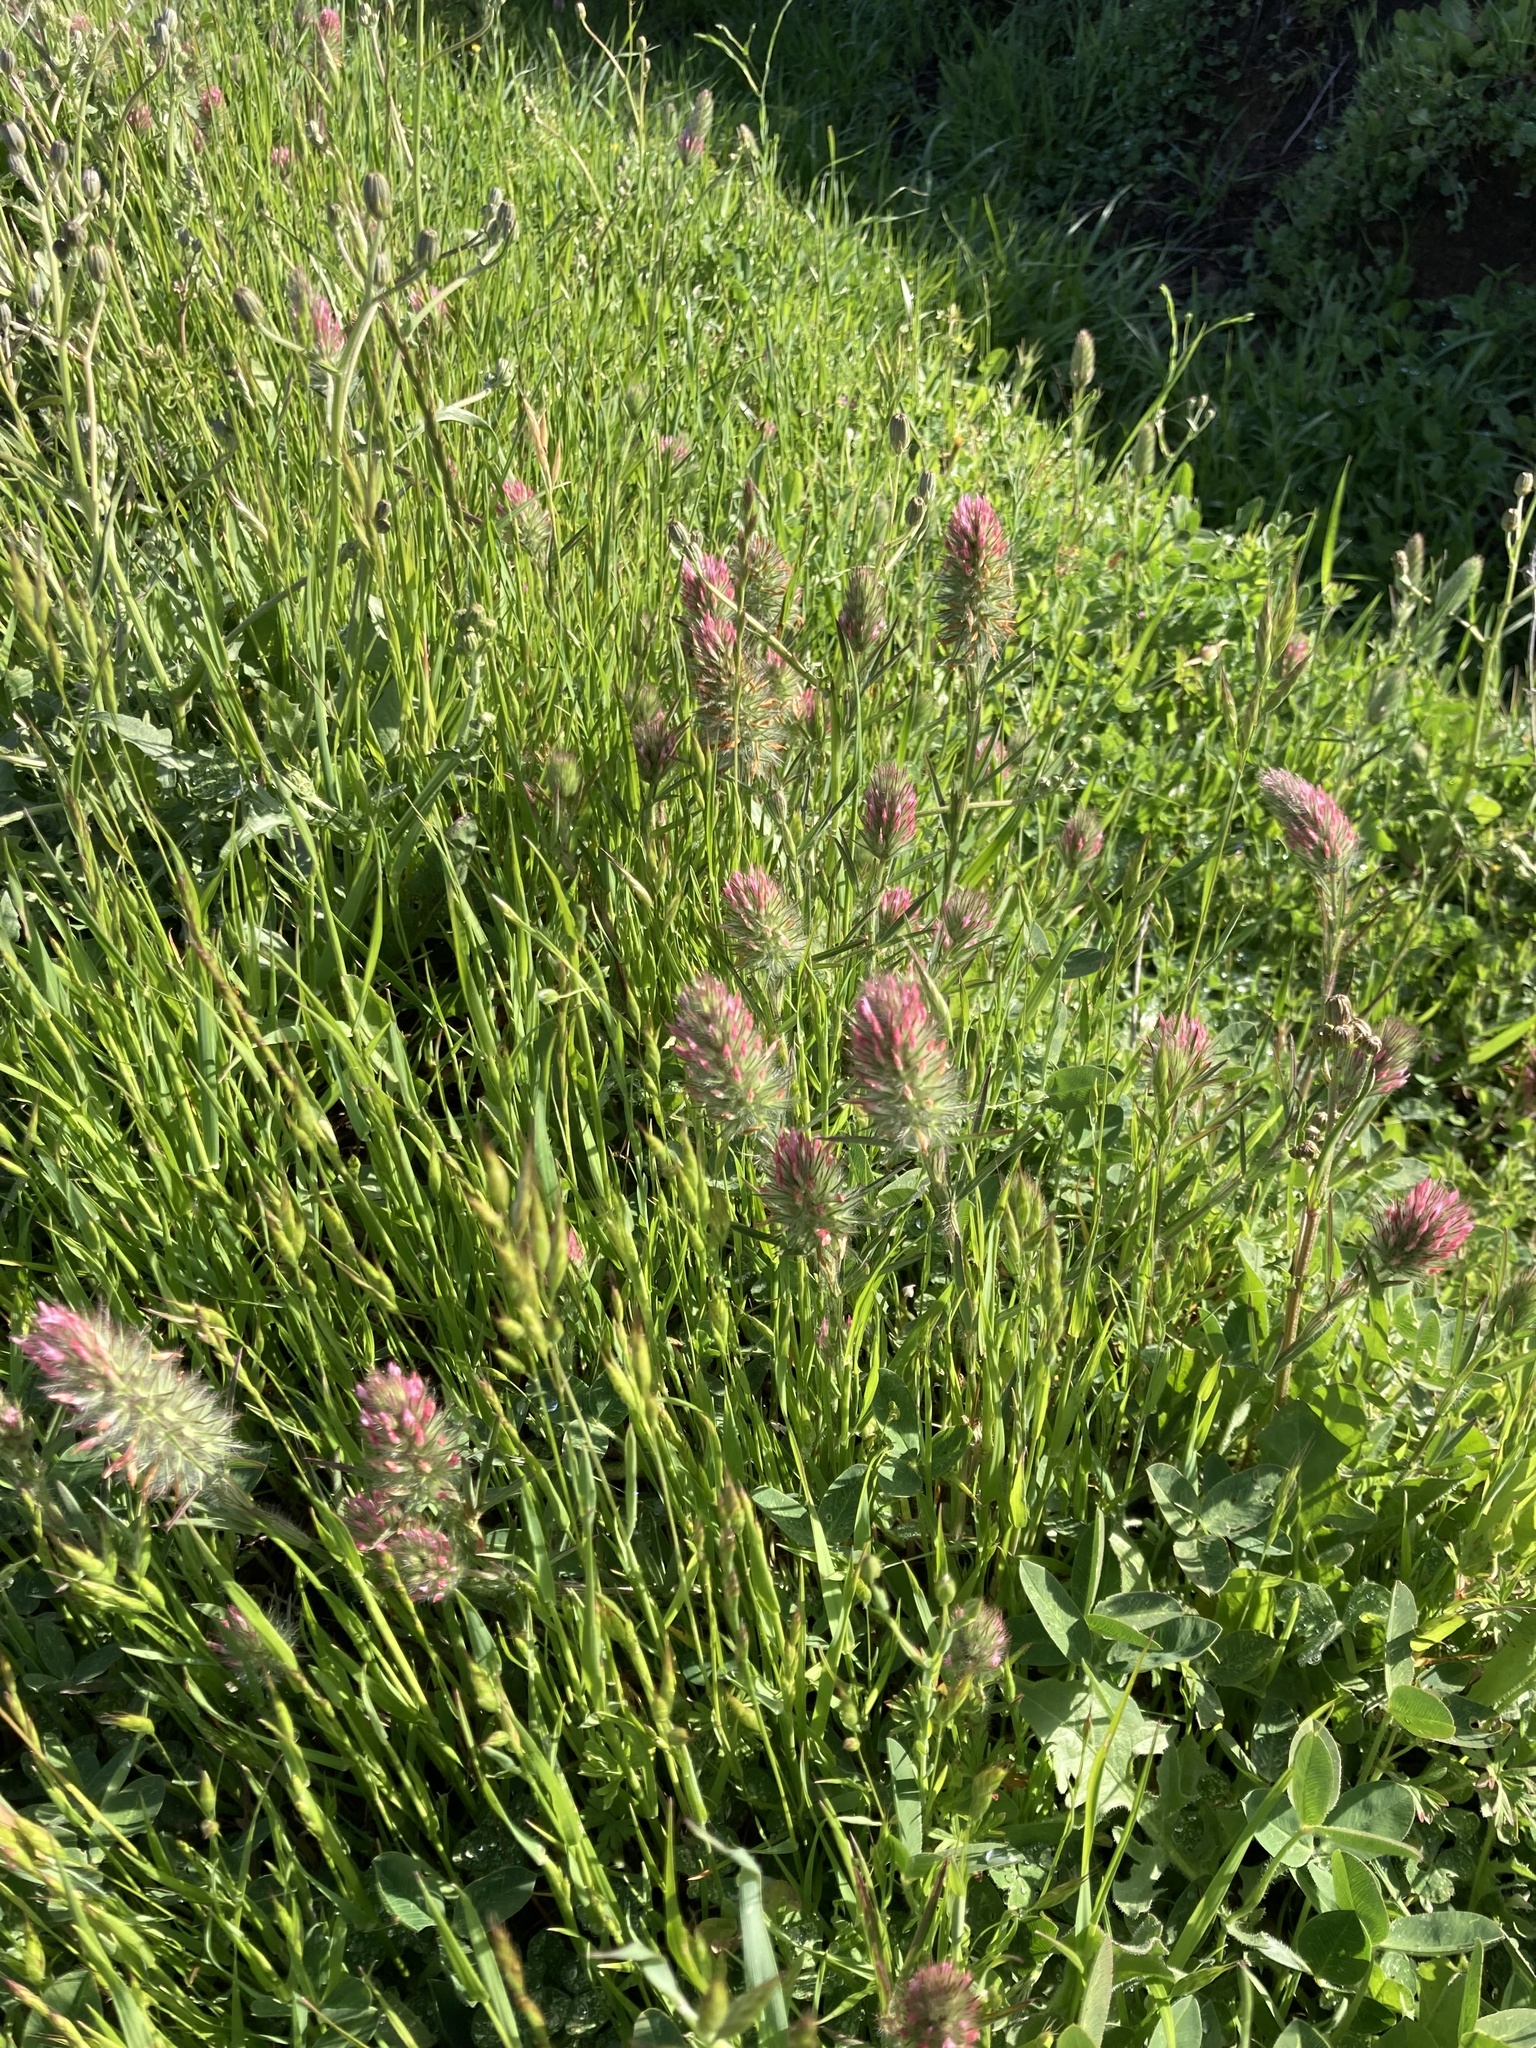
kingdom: Plantae
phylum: Tracheophyta
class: Magnoliopsida
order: Fabales
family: Fabaceae
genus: Trifolium
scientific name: Trifolium angustifolium
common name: Narrow clover
